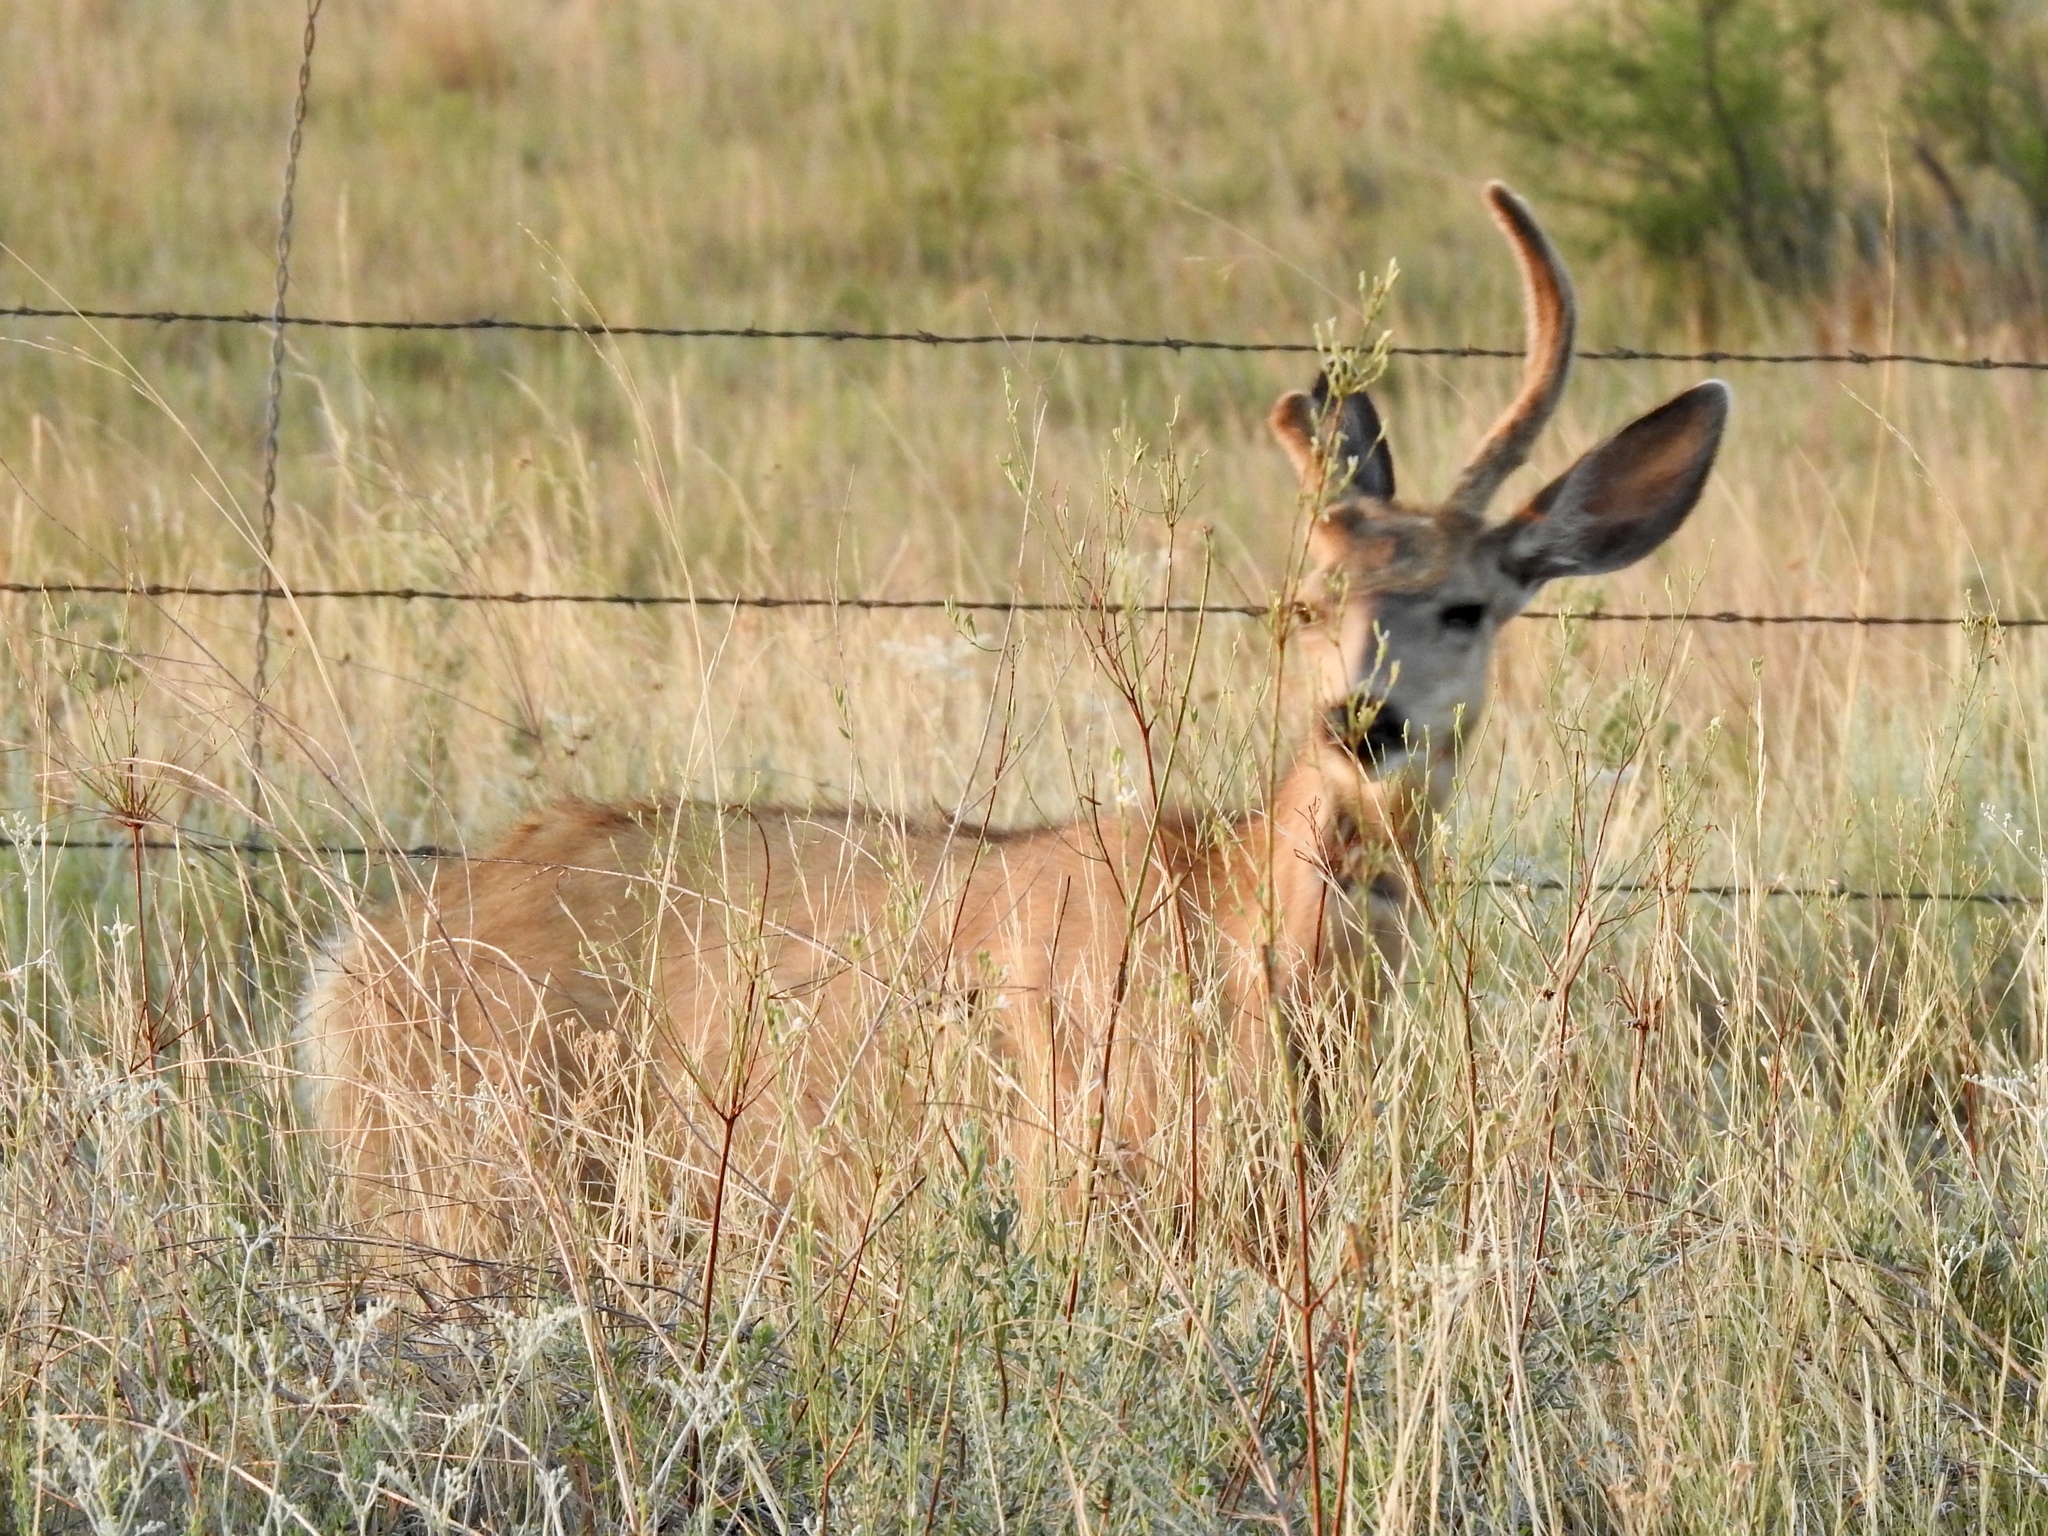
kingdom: Animalia
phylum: Chordata
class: Mammalia
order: Artiodactyla
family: Cervidae
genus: Odocoileus
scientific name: Odocoileus hemionus
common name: Mule deer
